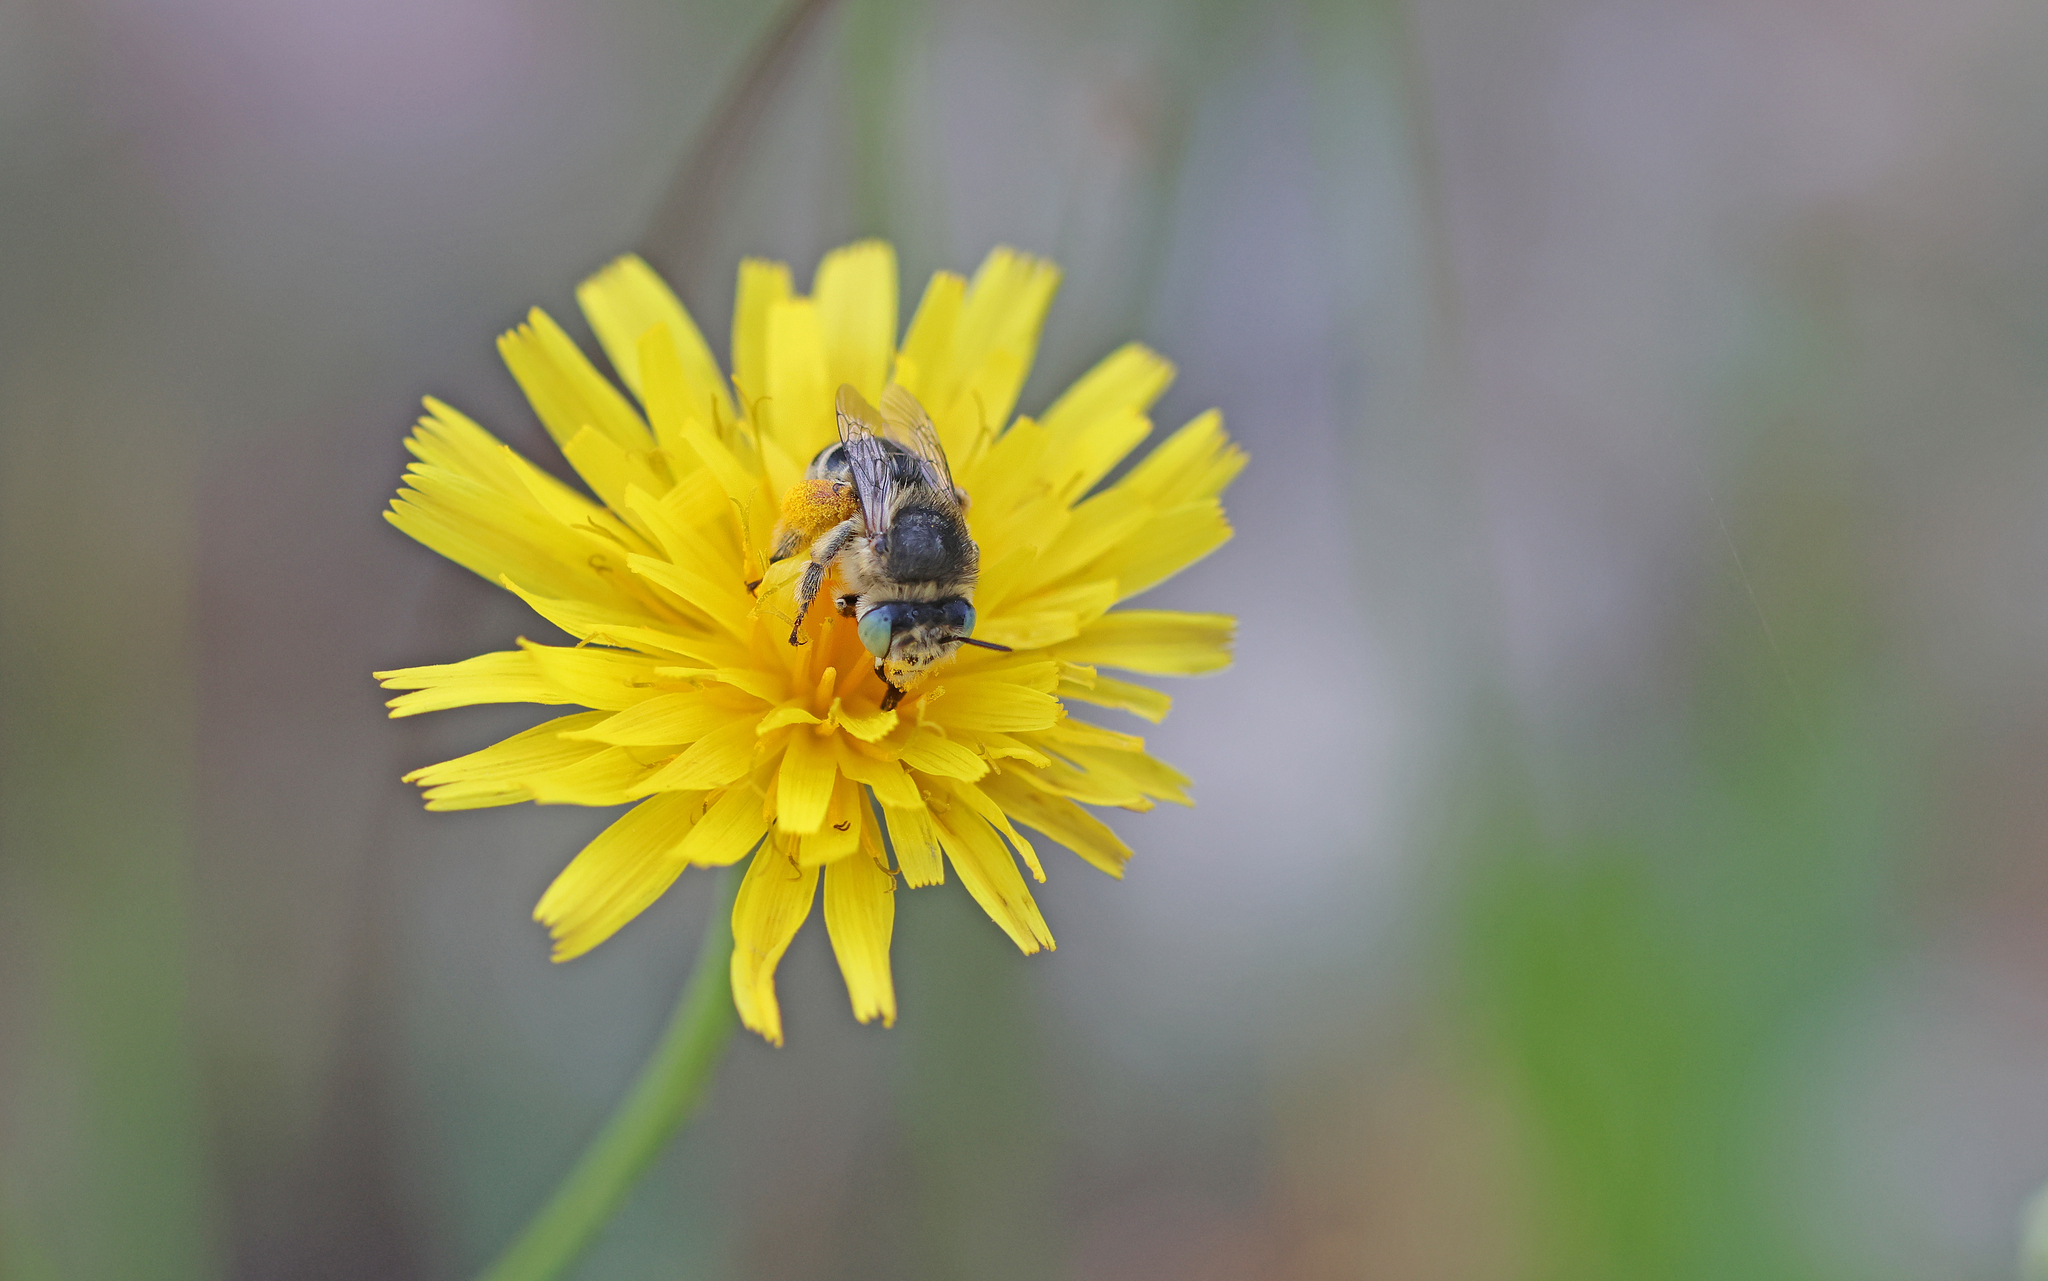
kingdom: Animalia
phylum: Arthropoda
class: Insecta
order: Hymenoptera
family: Apidae
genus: Anthophora
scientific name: Anthophora bimaculata
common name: Green-eyed flower bee
